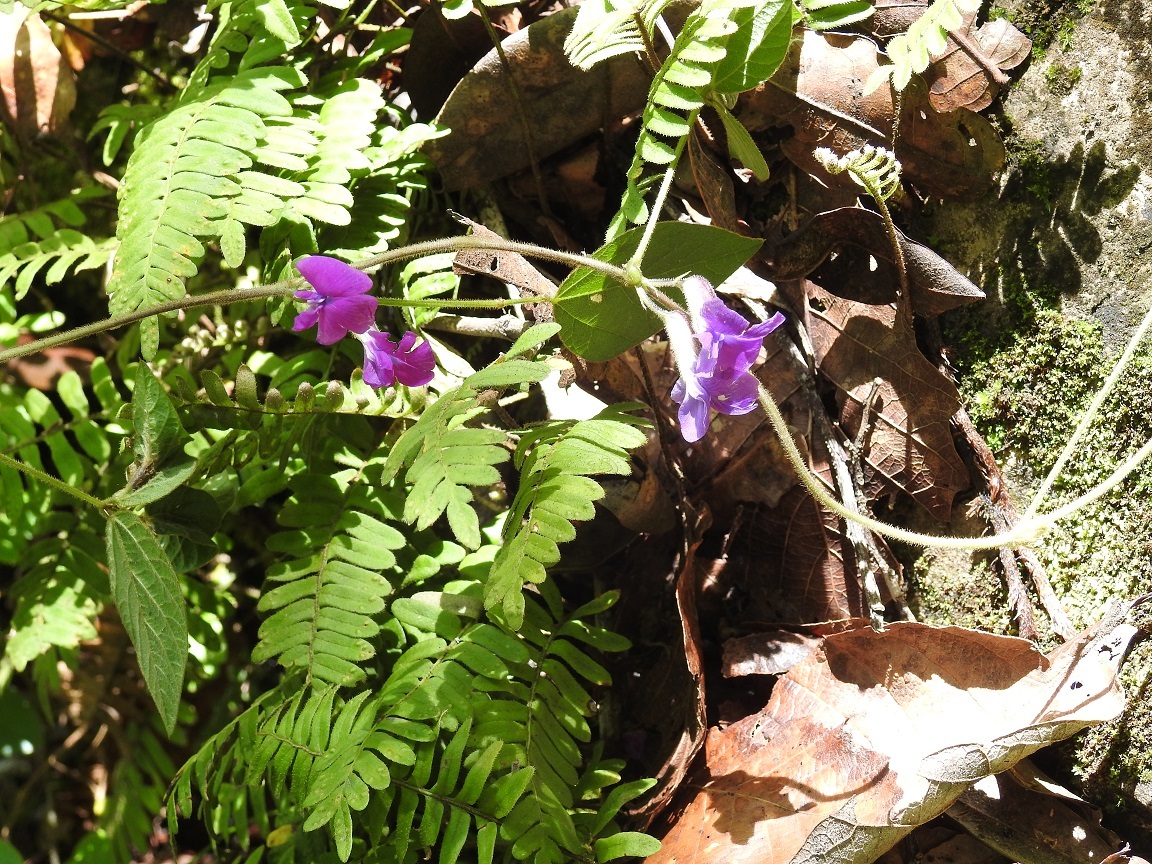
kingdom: Plantae
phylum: Tracheophyta
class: Magnoliopsida
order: Fabales
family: Fabaceae
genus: Cologania
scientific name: Cologania broussonetii
